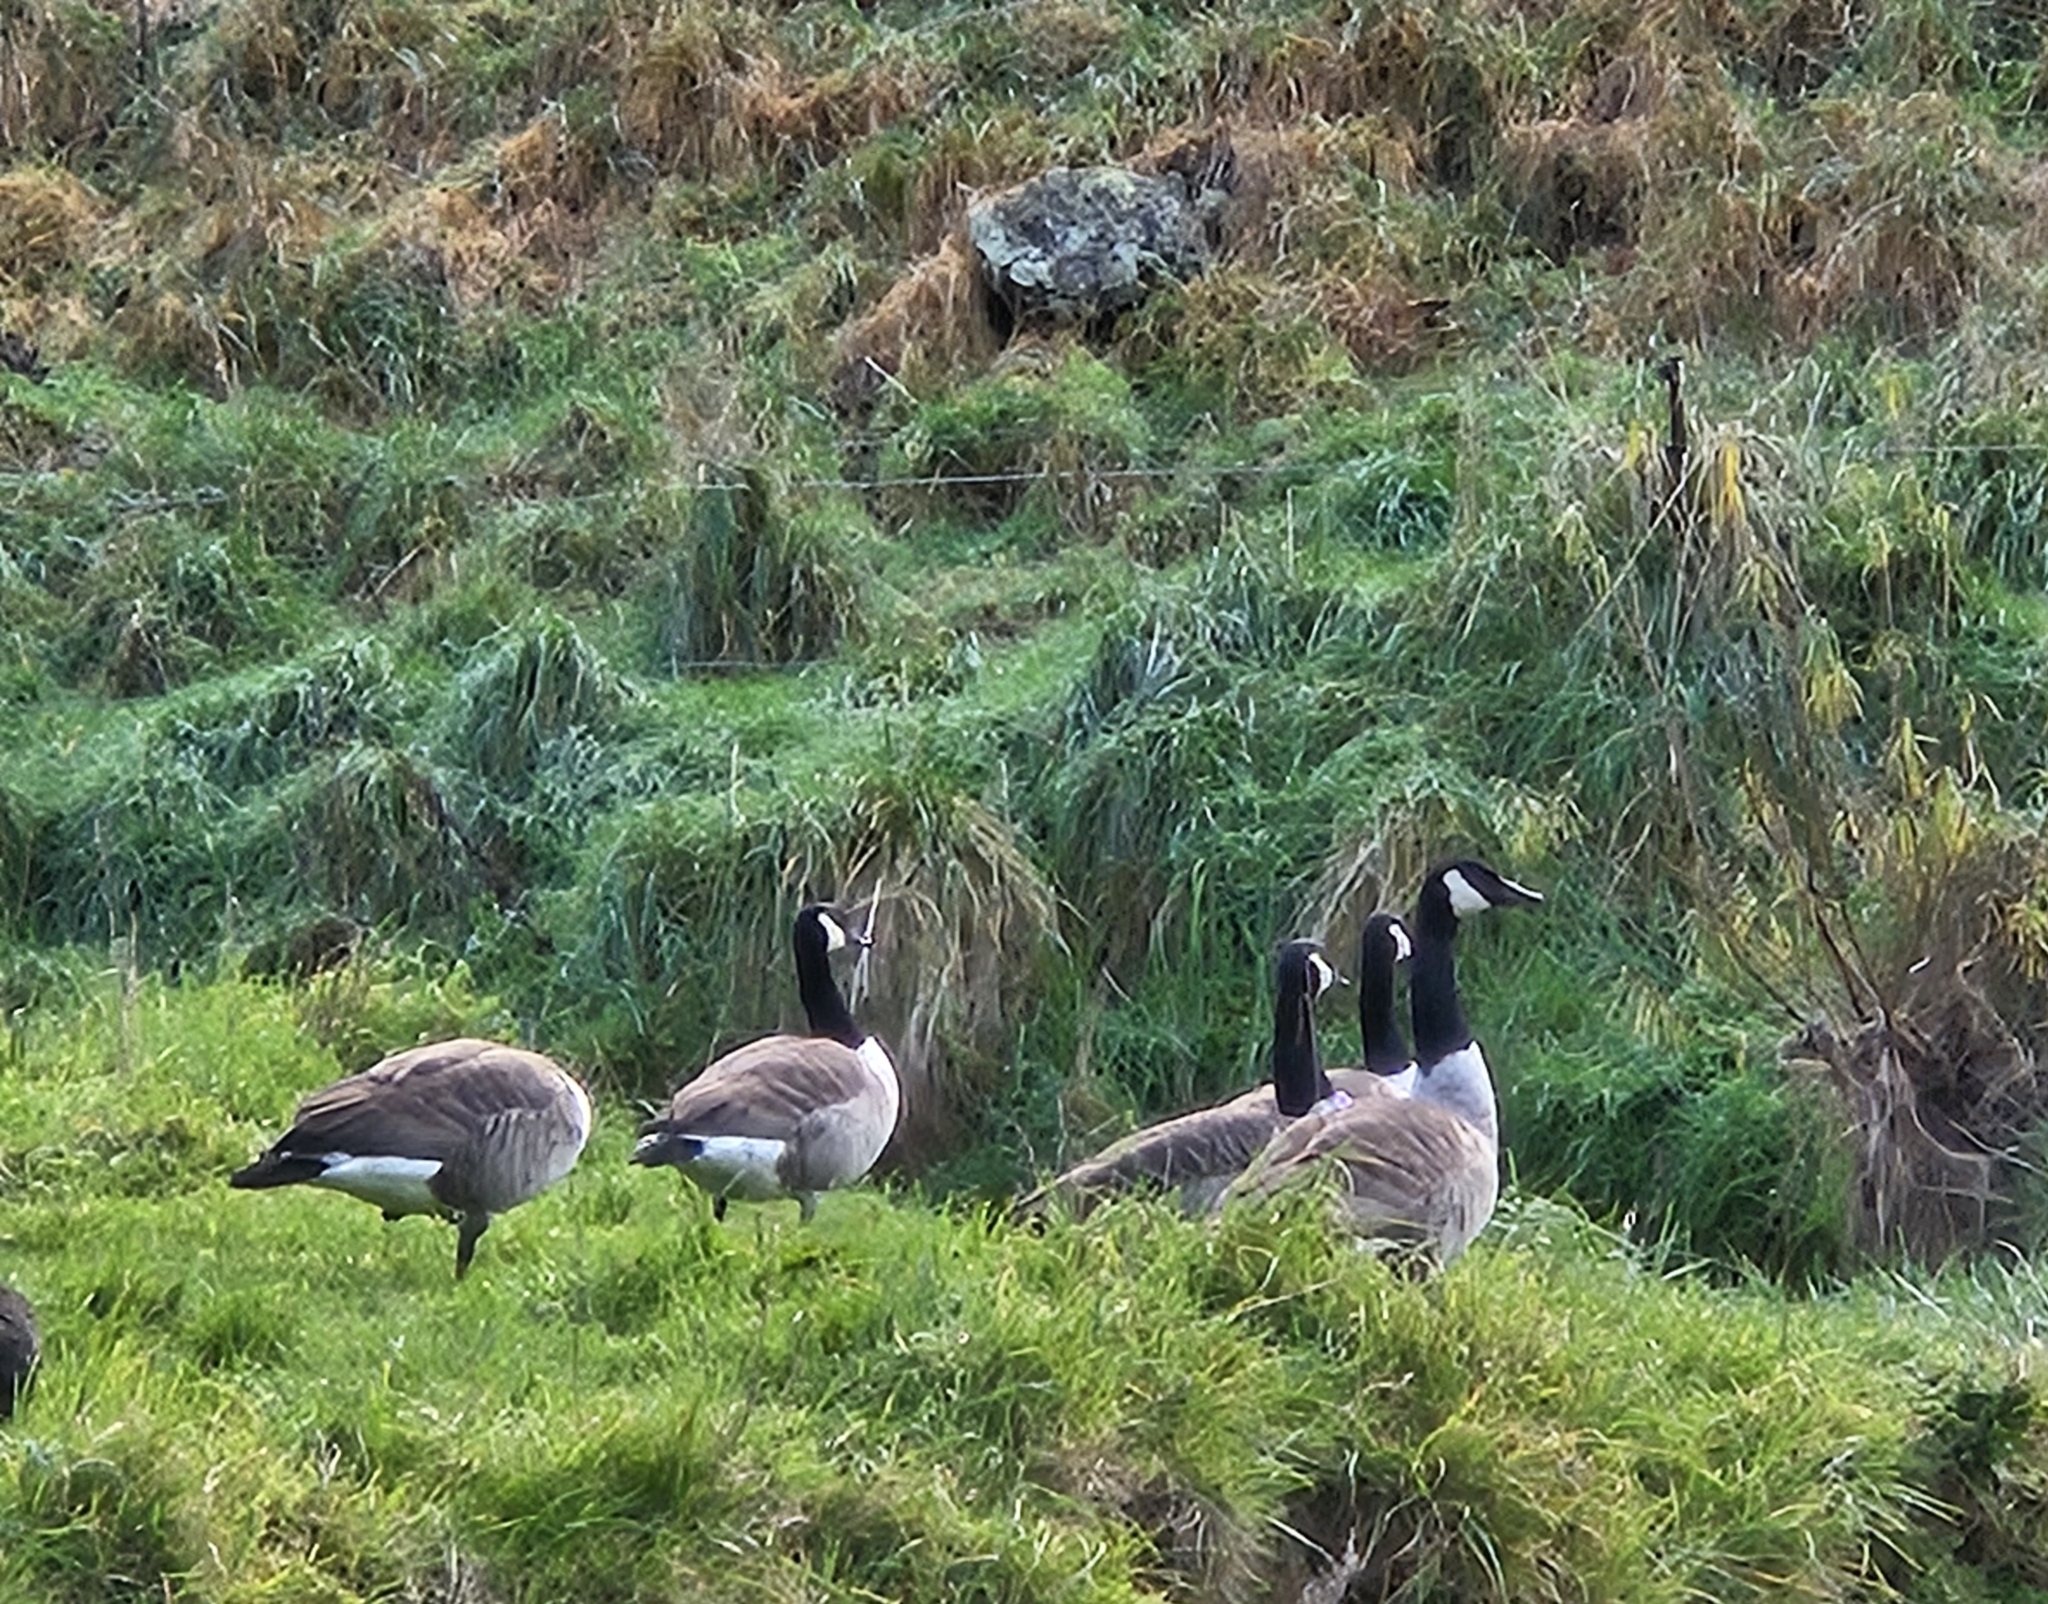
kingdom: Animalia
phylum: Chordata
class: Aves
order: Anseriformes
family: Anatidae
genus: Branta
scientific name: Branta canadensis
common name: Canada goose
